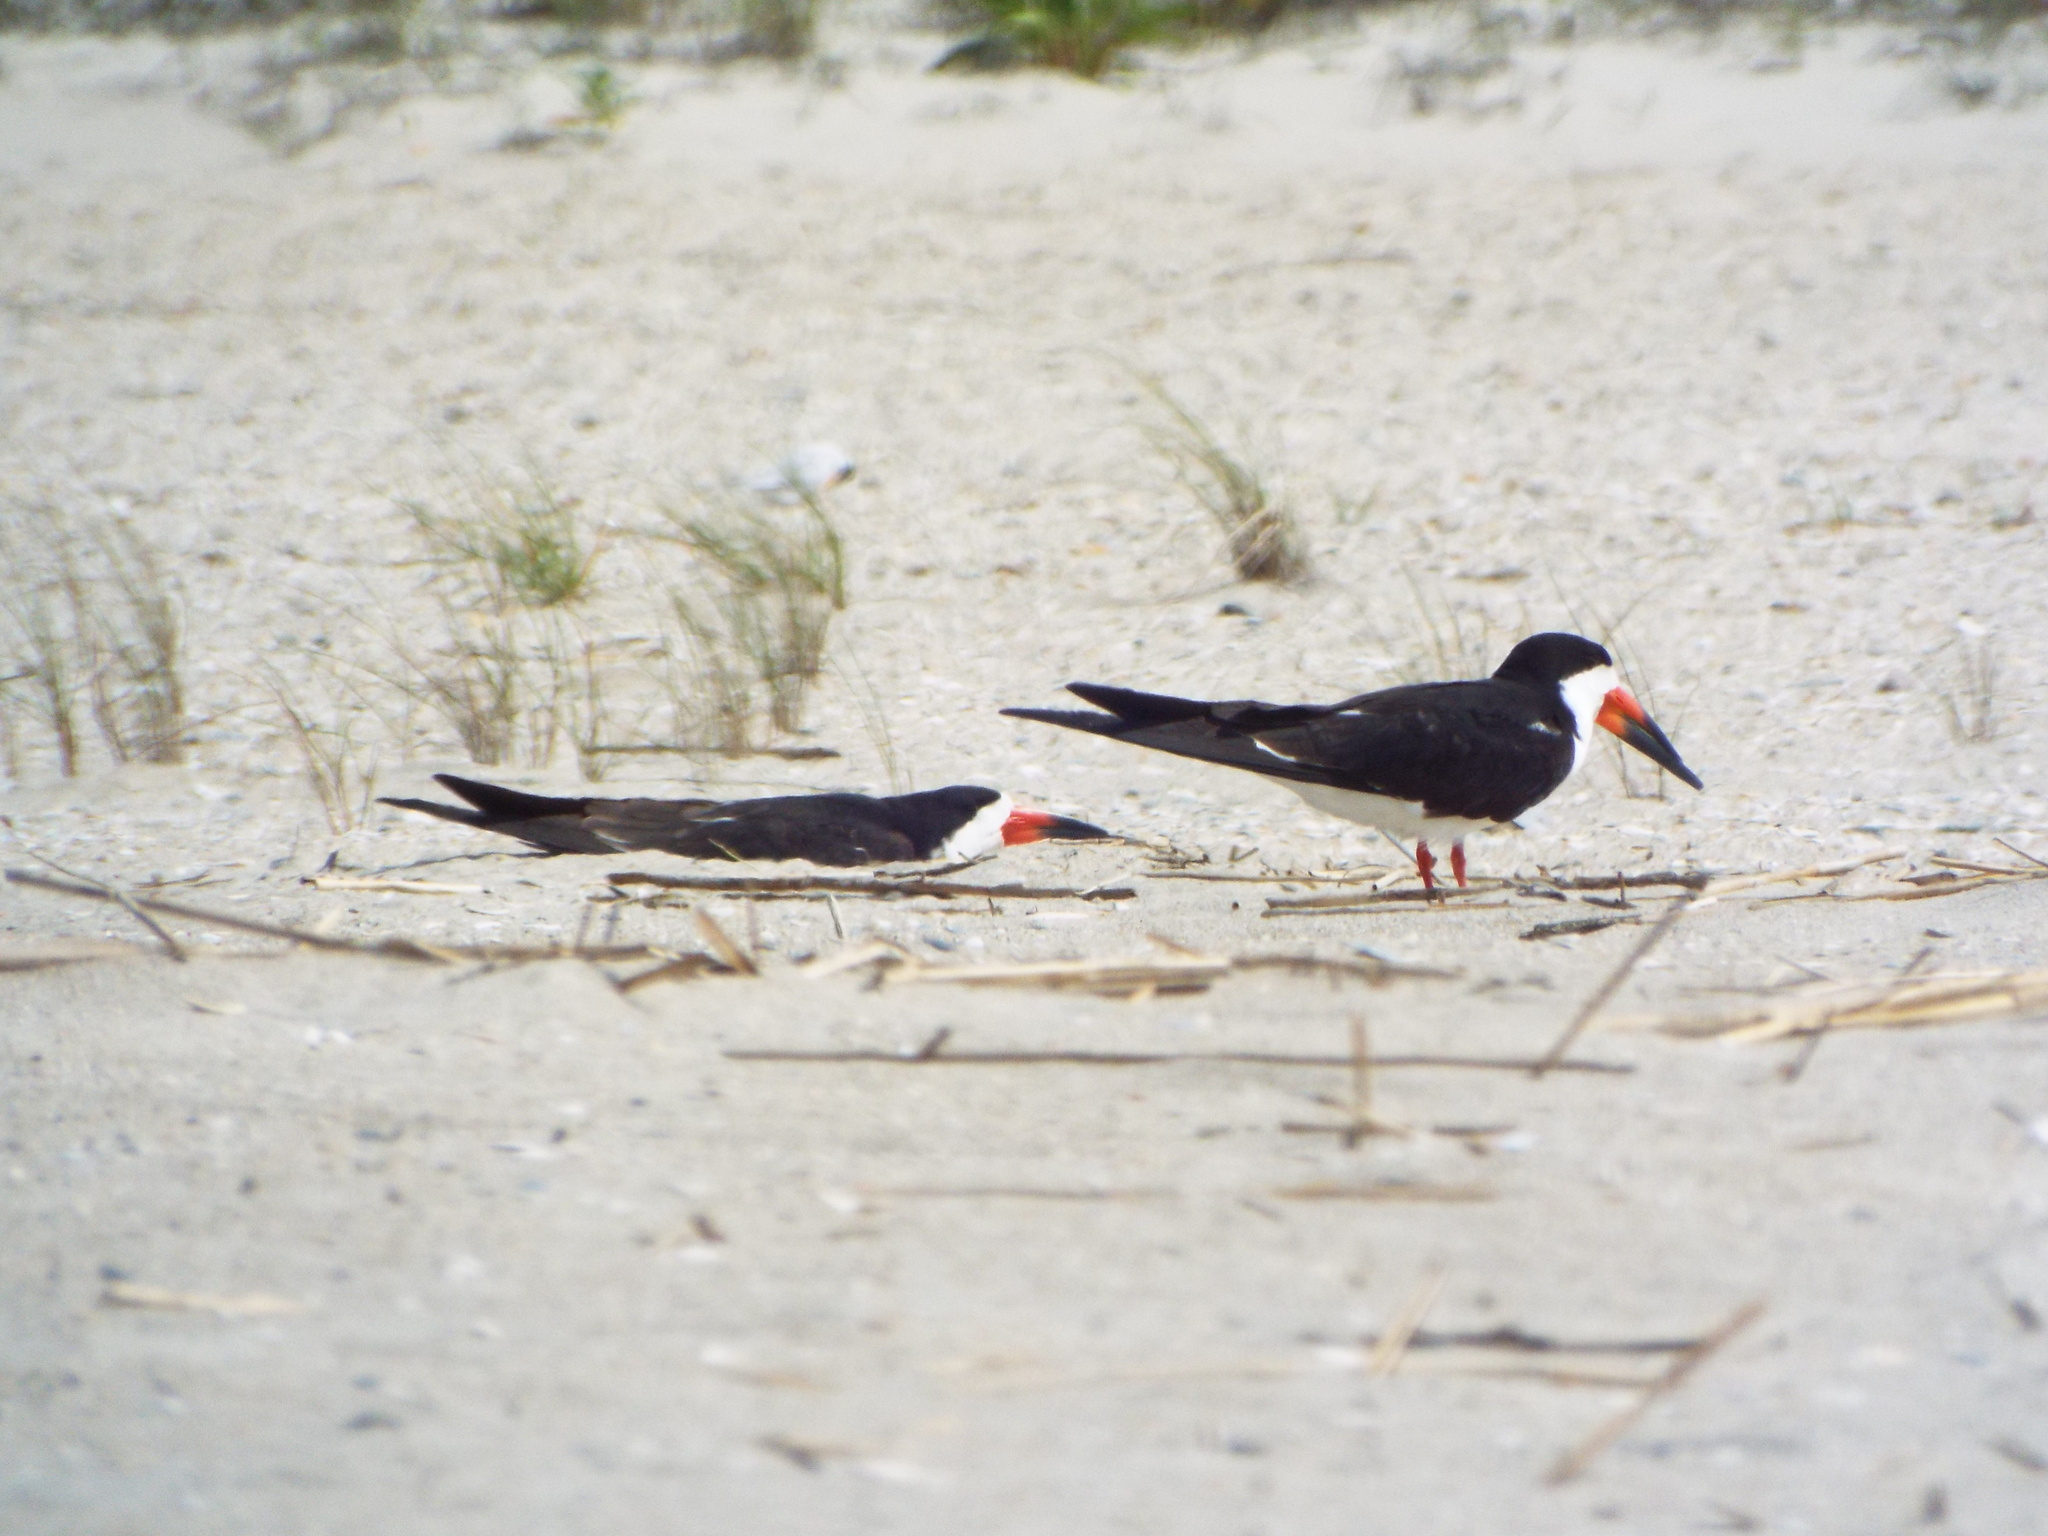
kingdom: Animalia
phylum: Chordata
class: Aves
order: Charadriiformes
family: Laridae
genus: Rynchops
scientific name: Rynchops niger
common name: Black skimmer
